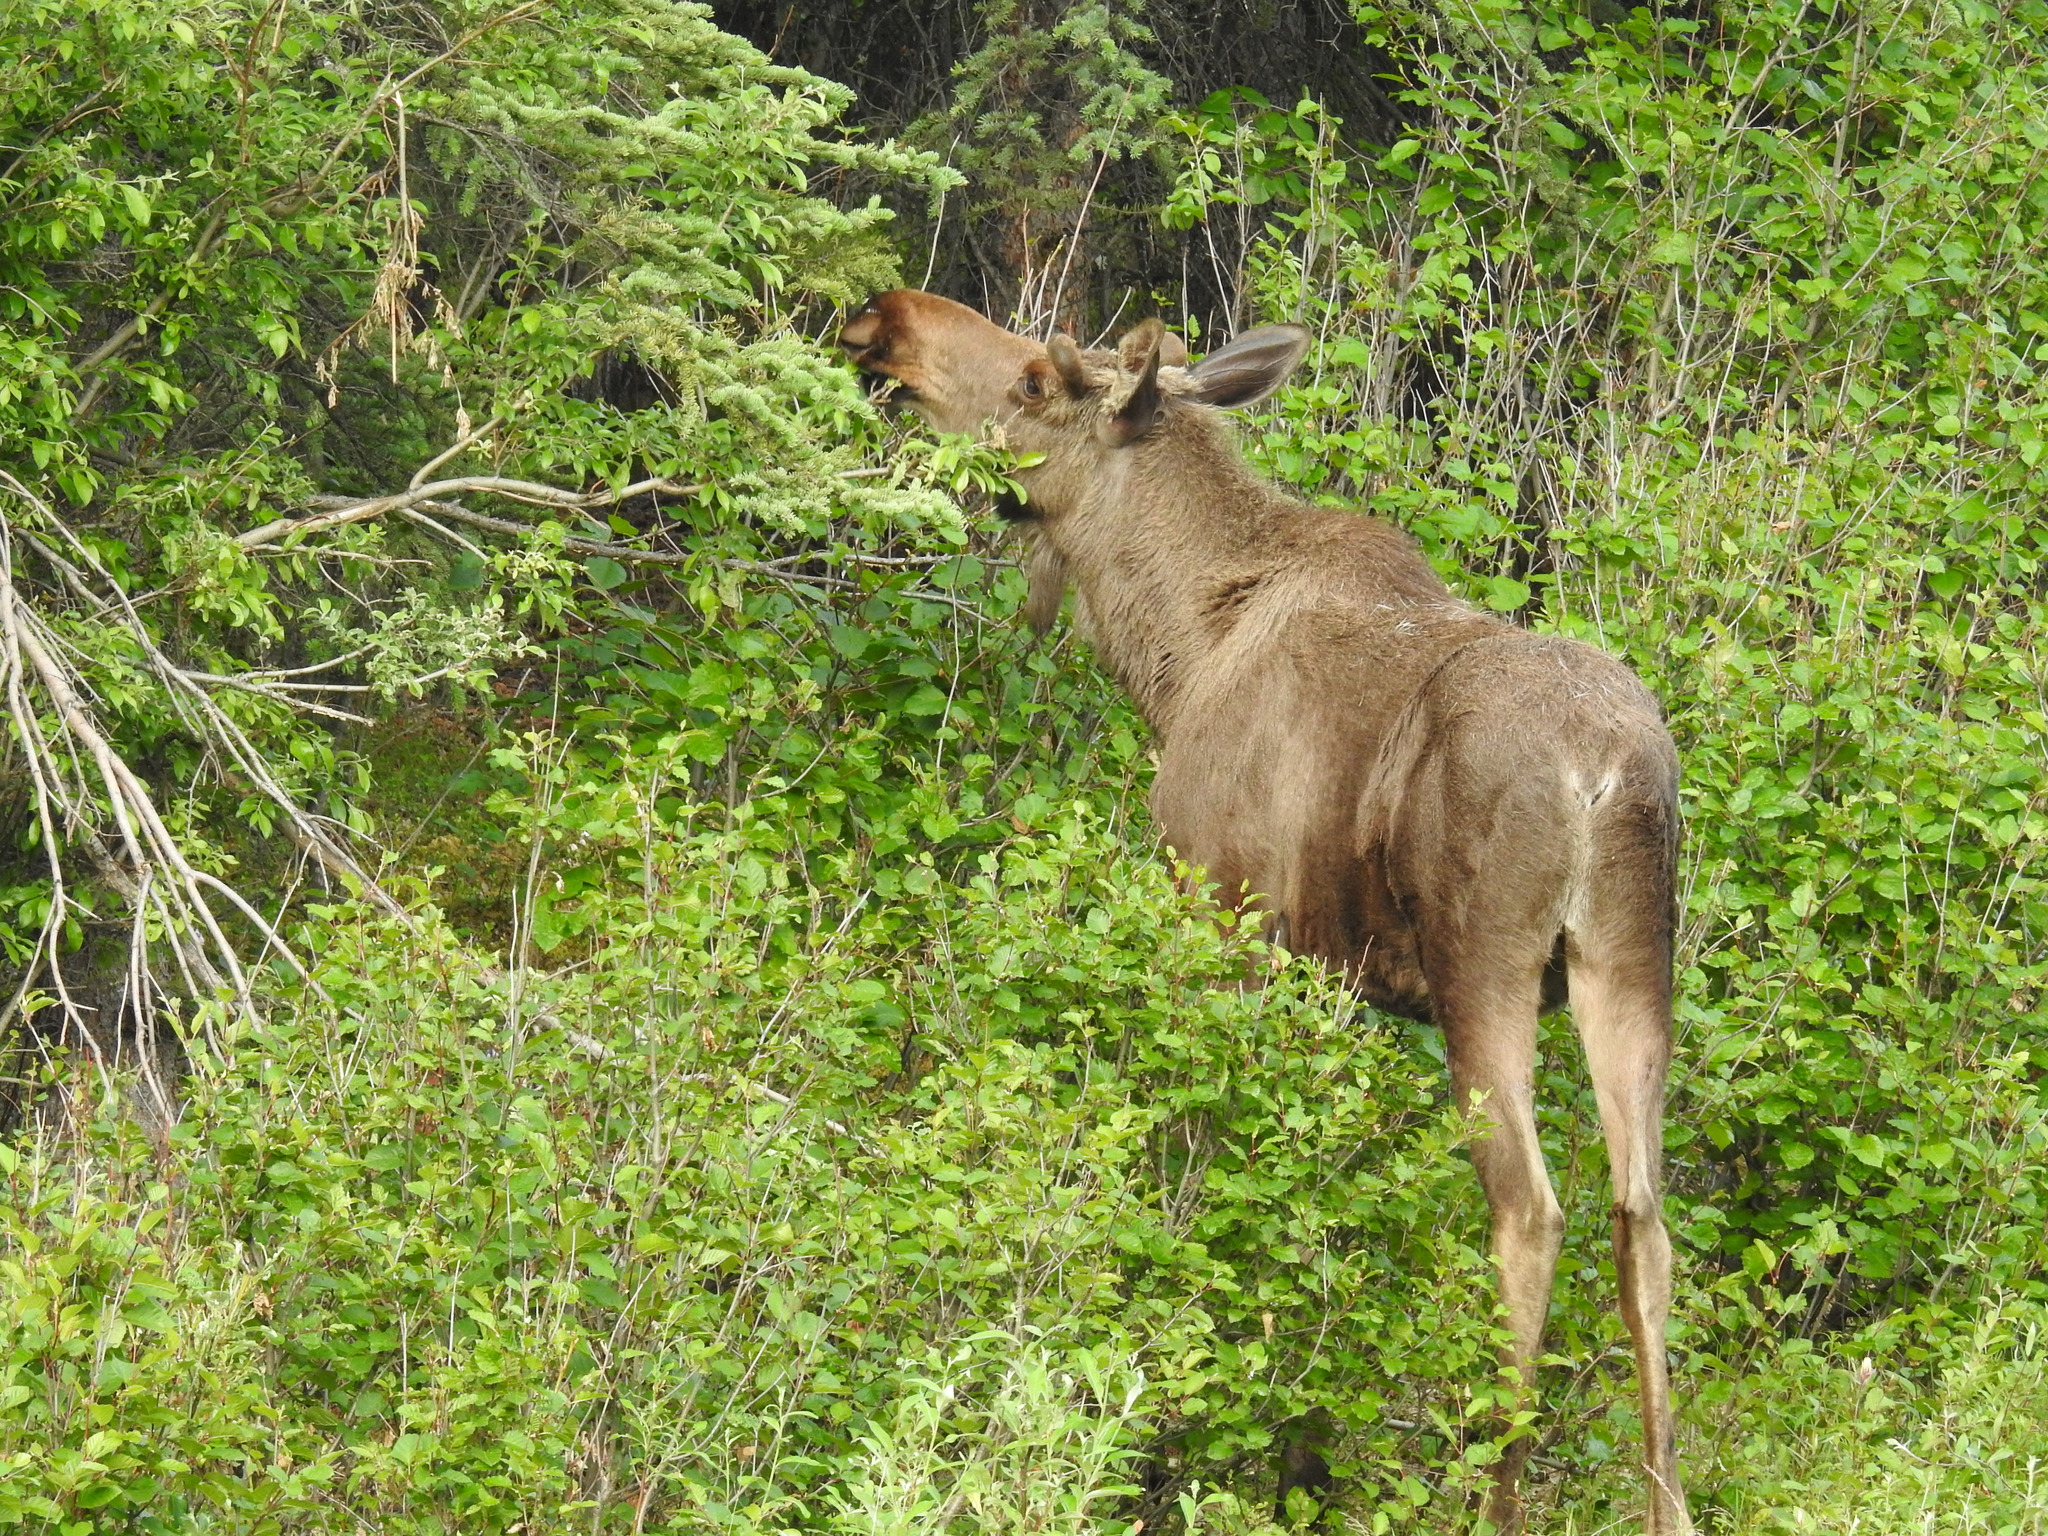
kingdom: Animalia
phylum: Chordata
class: Mammalia
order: Artiodactyla
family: Cervidae
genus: Alces
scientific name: Alces alces
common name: Moose
